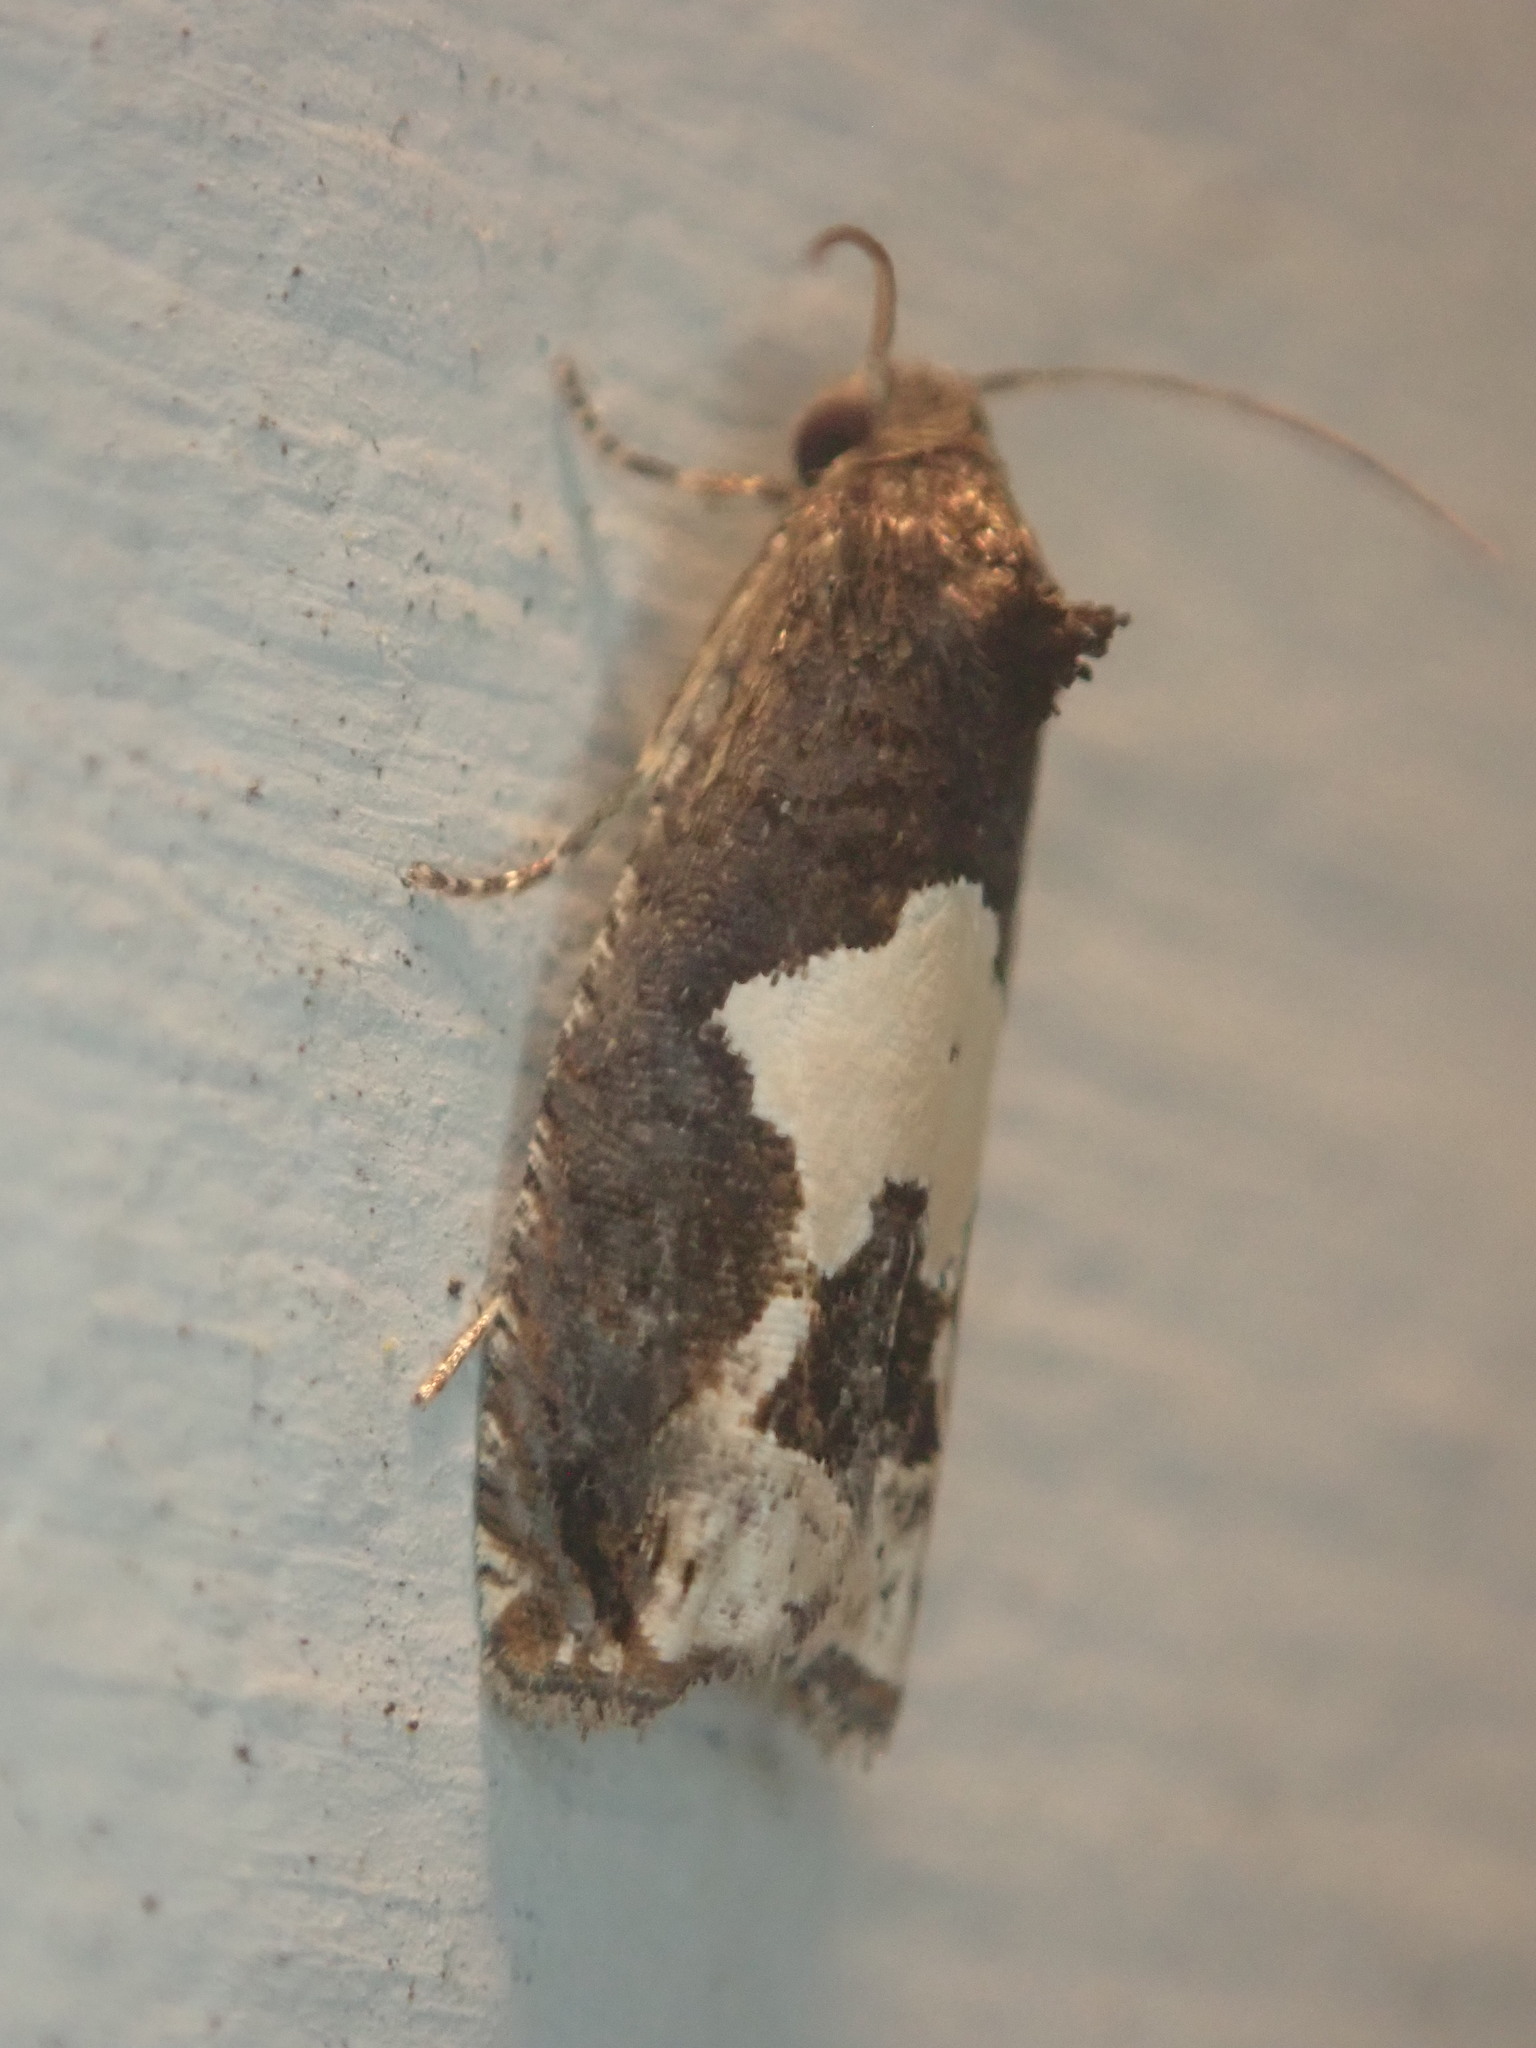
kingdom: Animalia
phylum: Arthropoda
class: Insecta
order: Lepidoptera
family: Tortricidae
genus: Epiblema
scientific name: Epiblema otiosana
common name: Bidens borer moth
